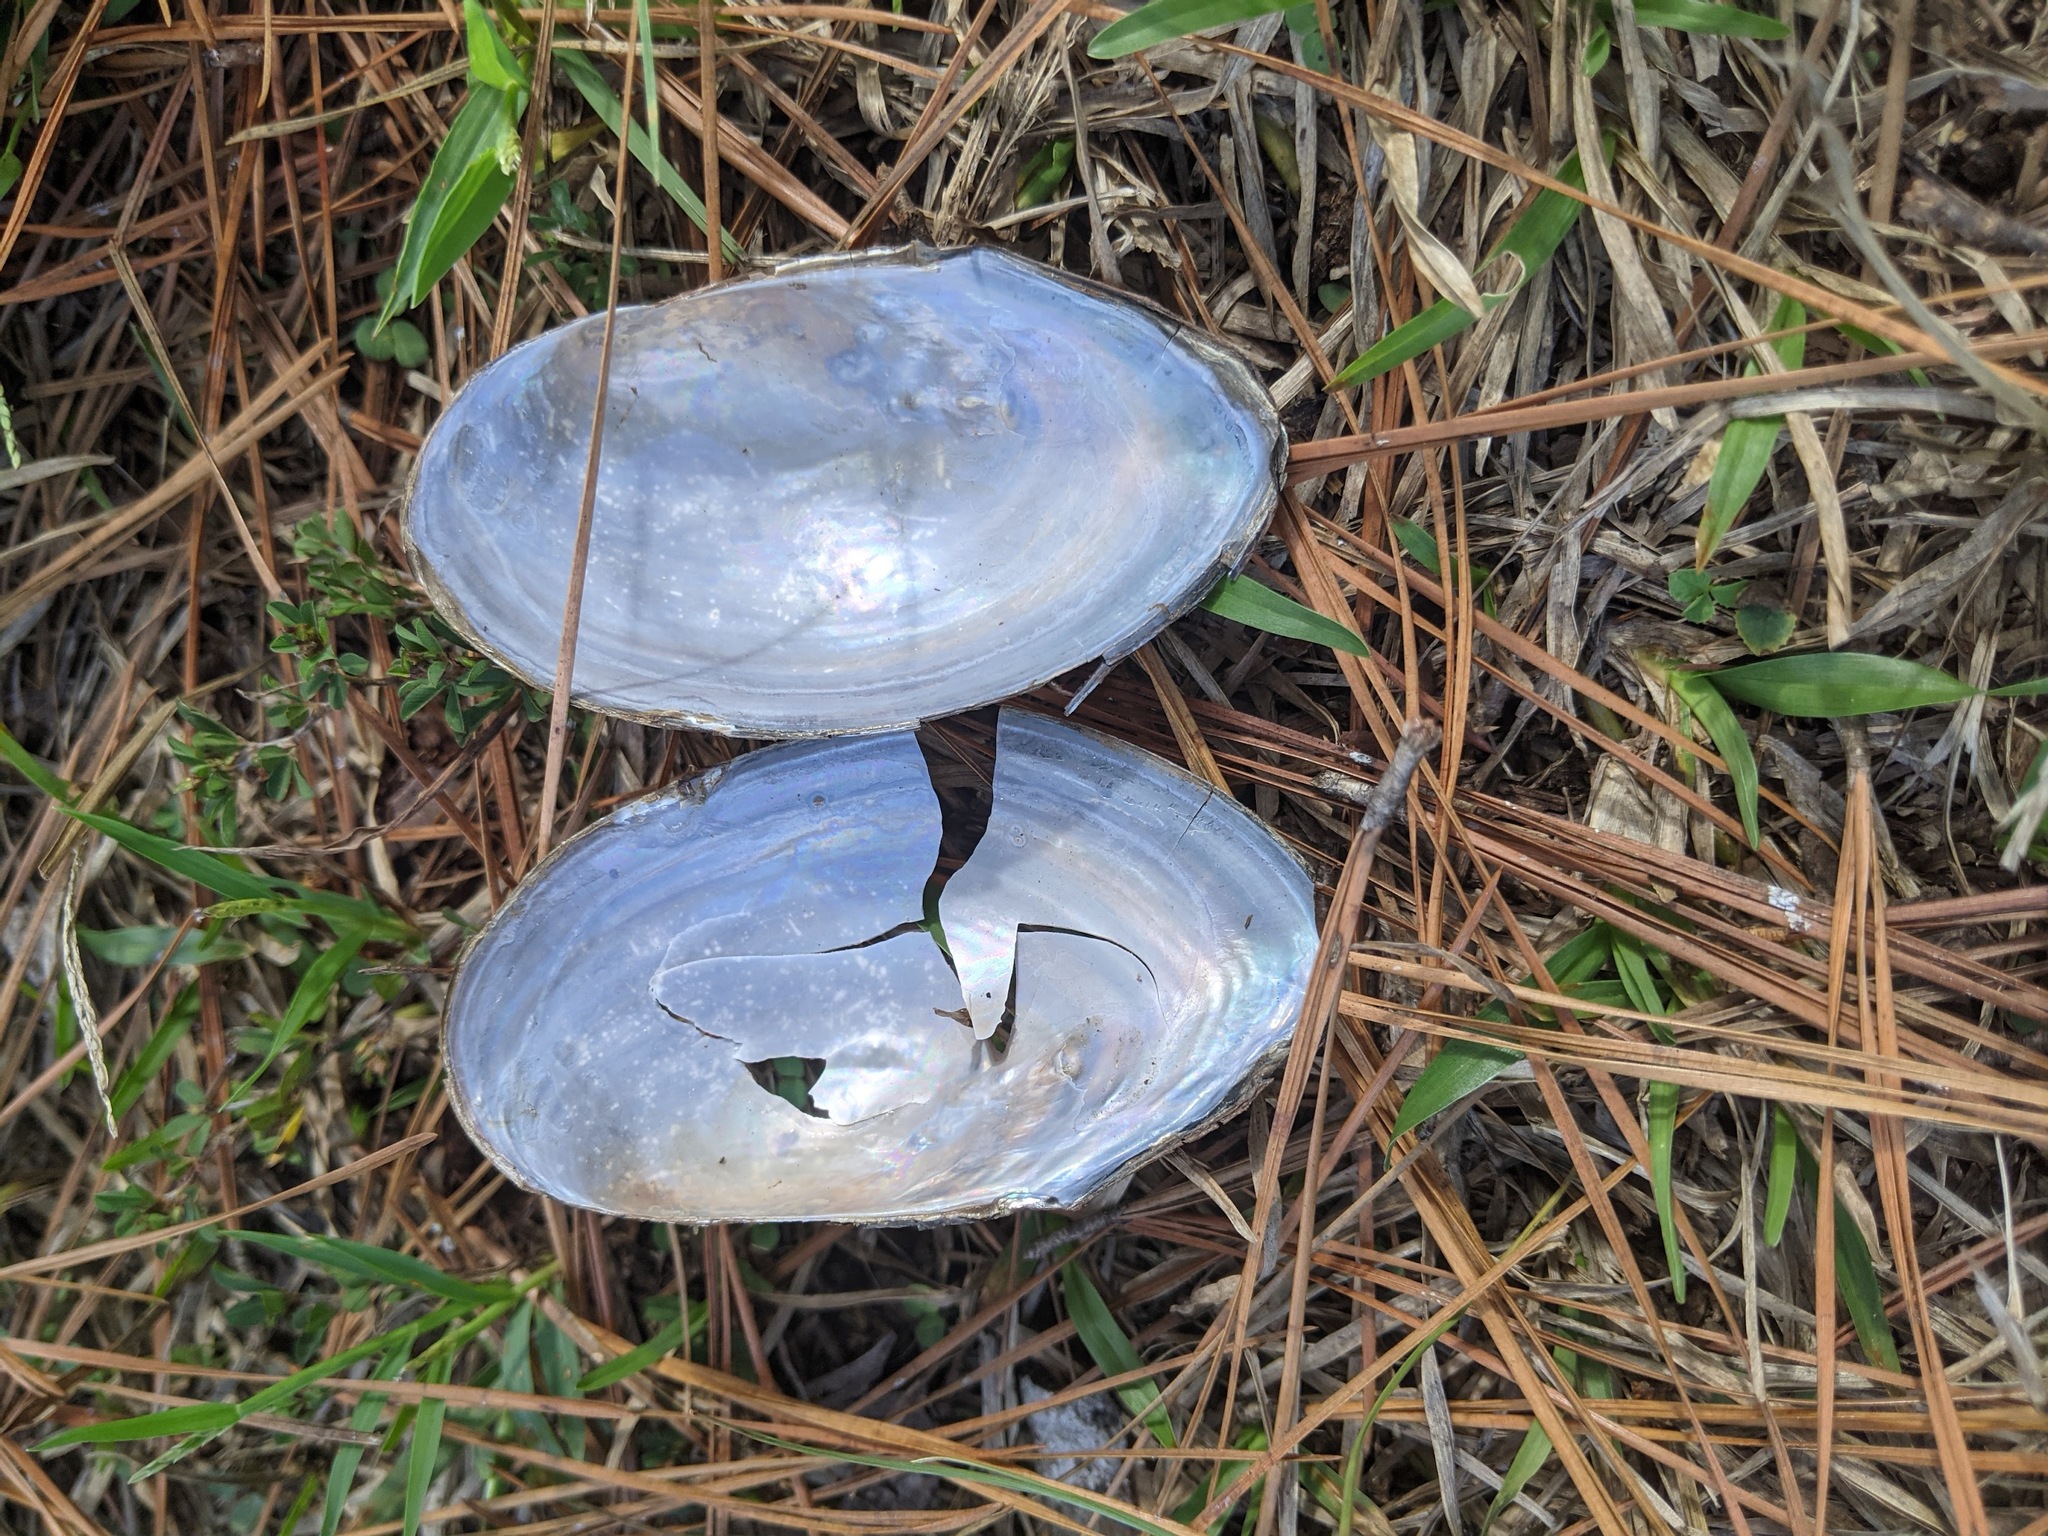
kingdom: Animalia
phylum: Mollusca
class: Bivalvia
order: Unionida
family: Unionidae
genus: Utterbackia
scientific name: Utterbackia imbecillis
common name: Paper pondshell
